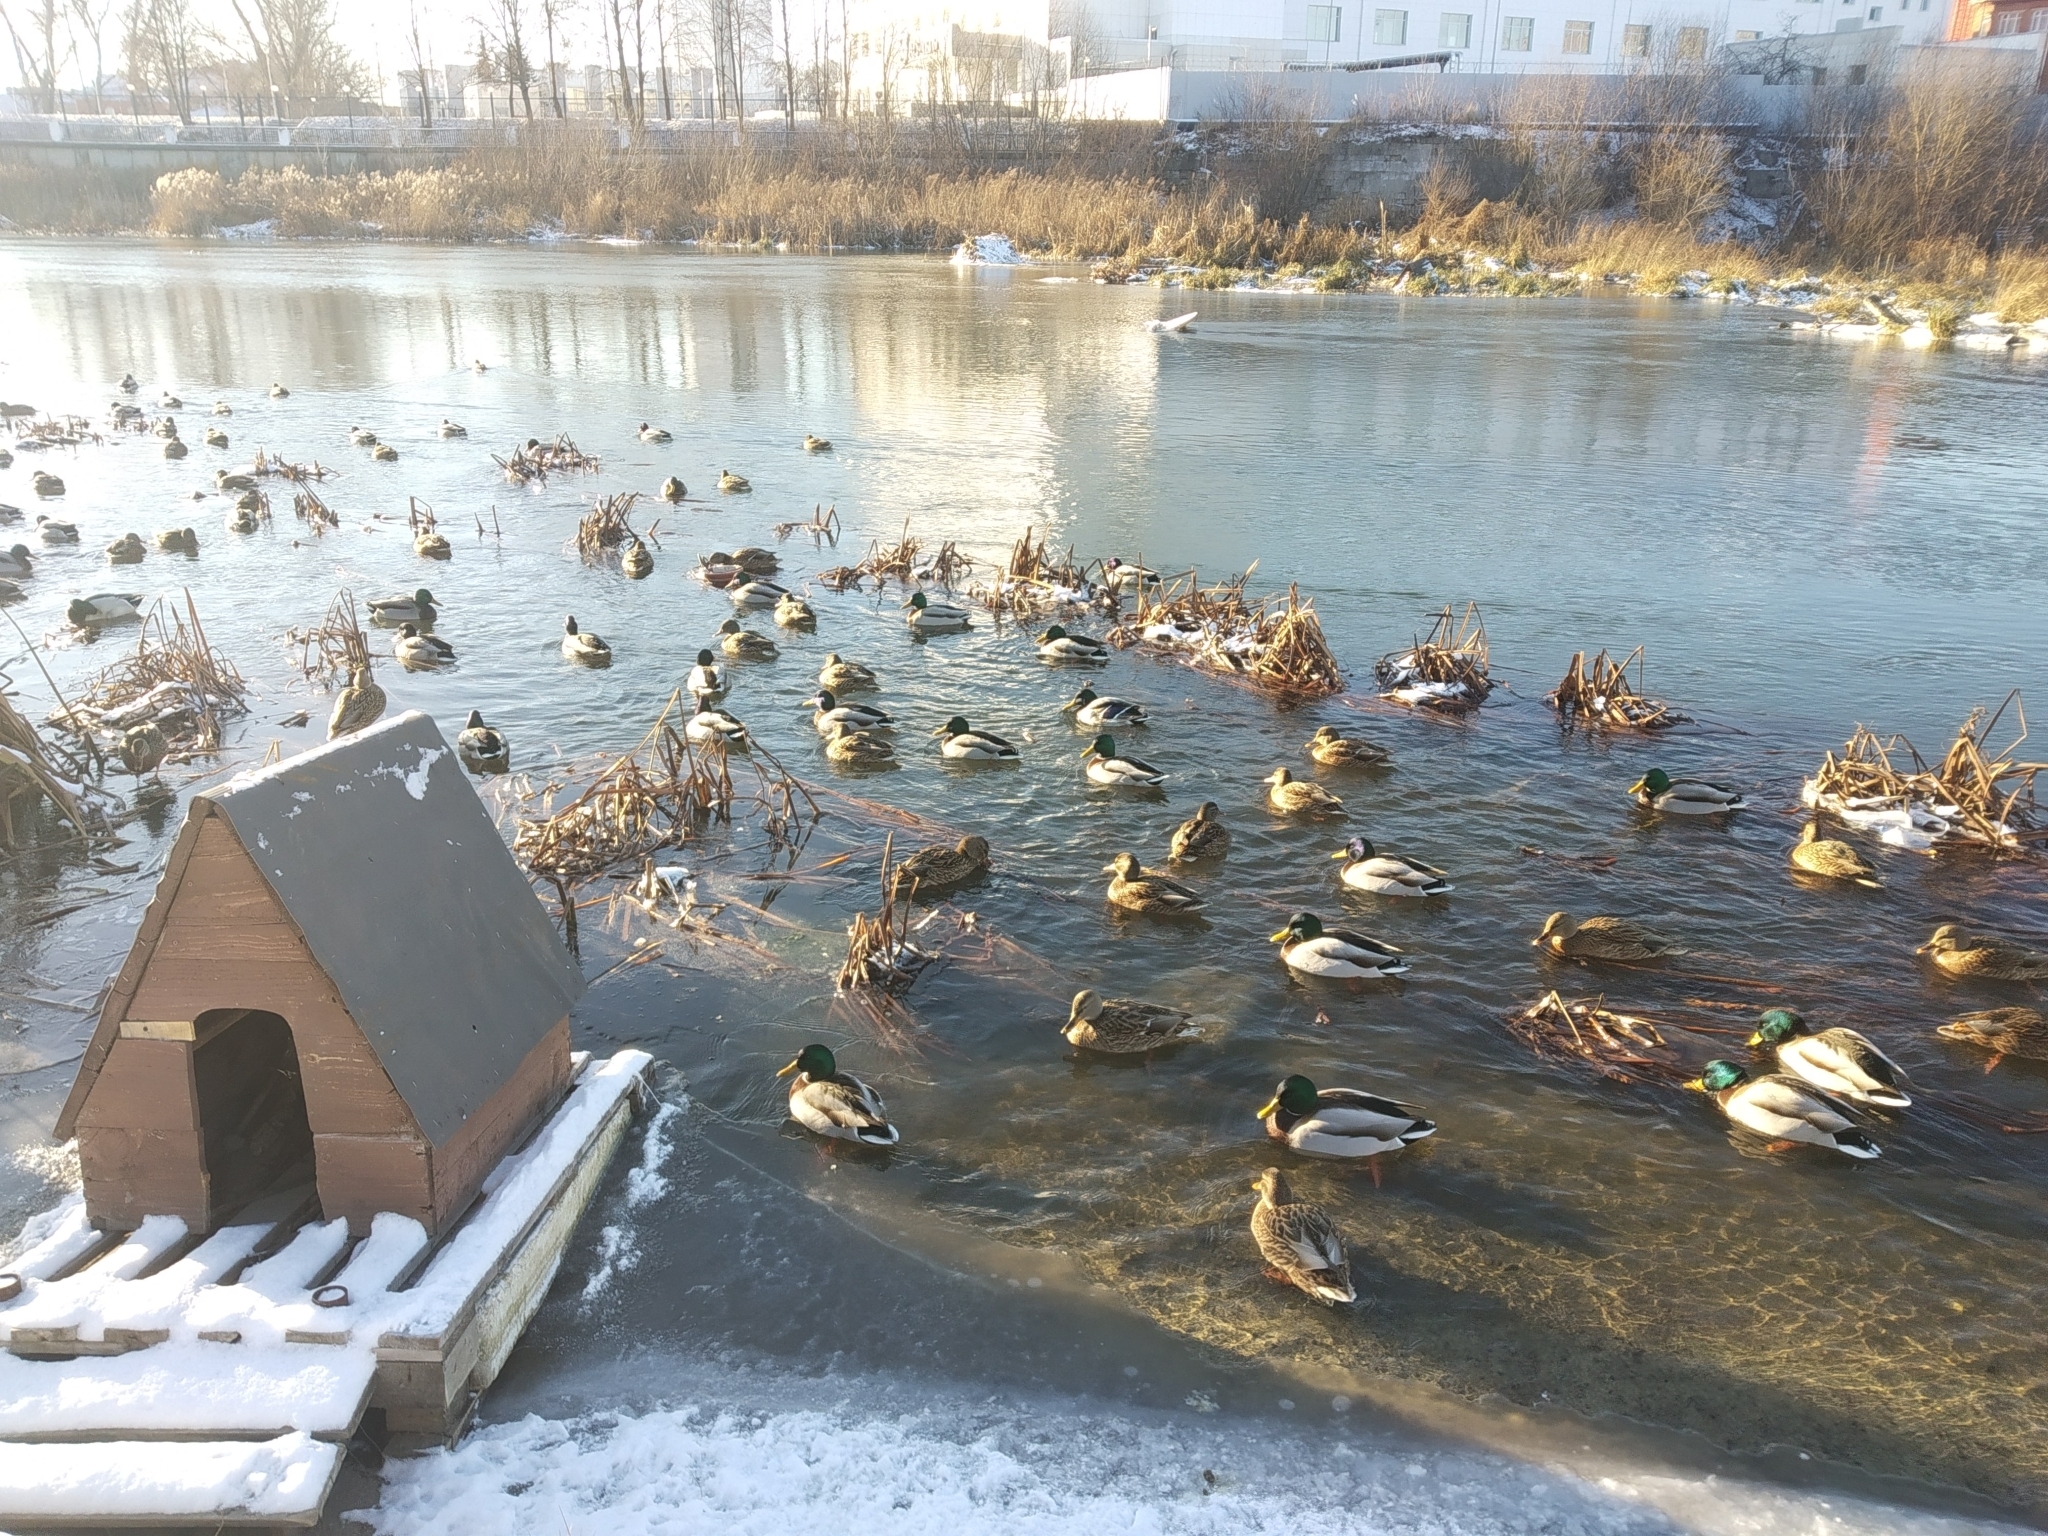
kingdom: Animalia
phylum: Chordata
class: Aves
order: Anseriformes
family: Anatidae
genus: Anas
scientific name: Anas platyrhynchos
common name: Mallard
